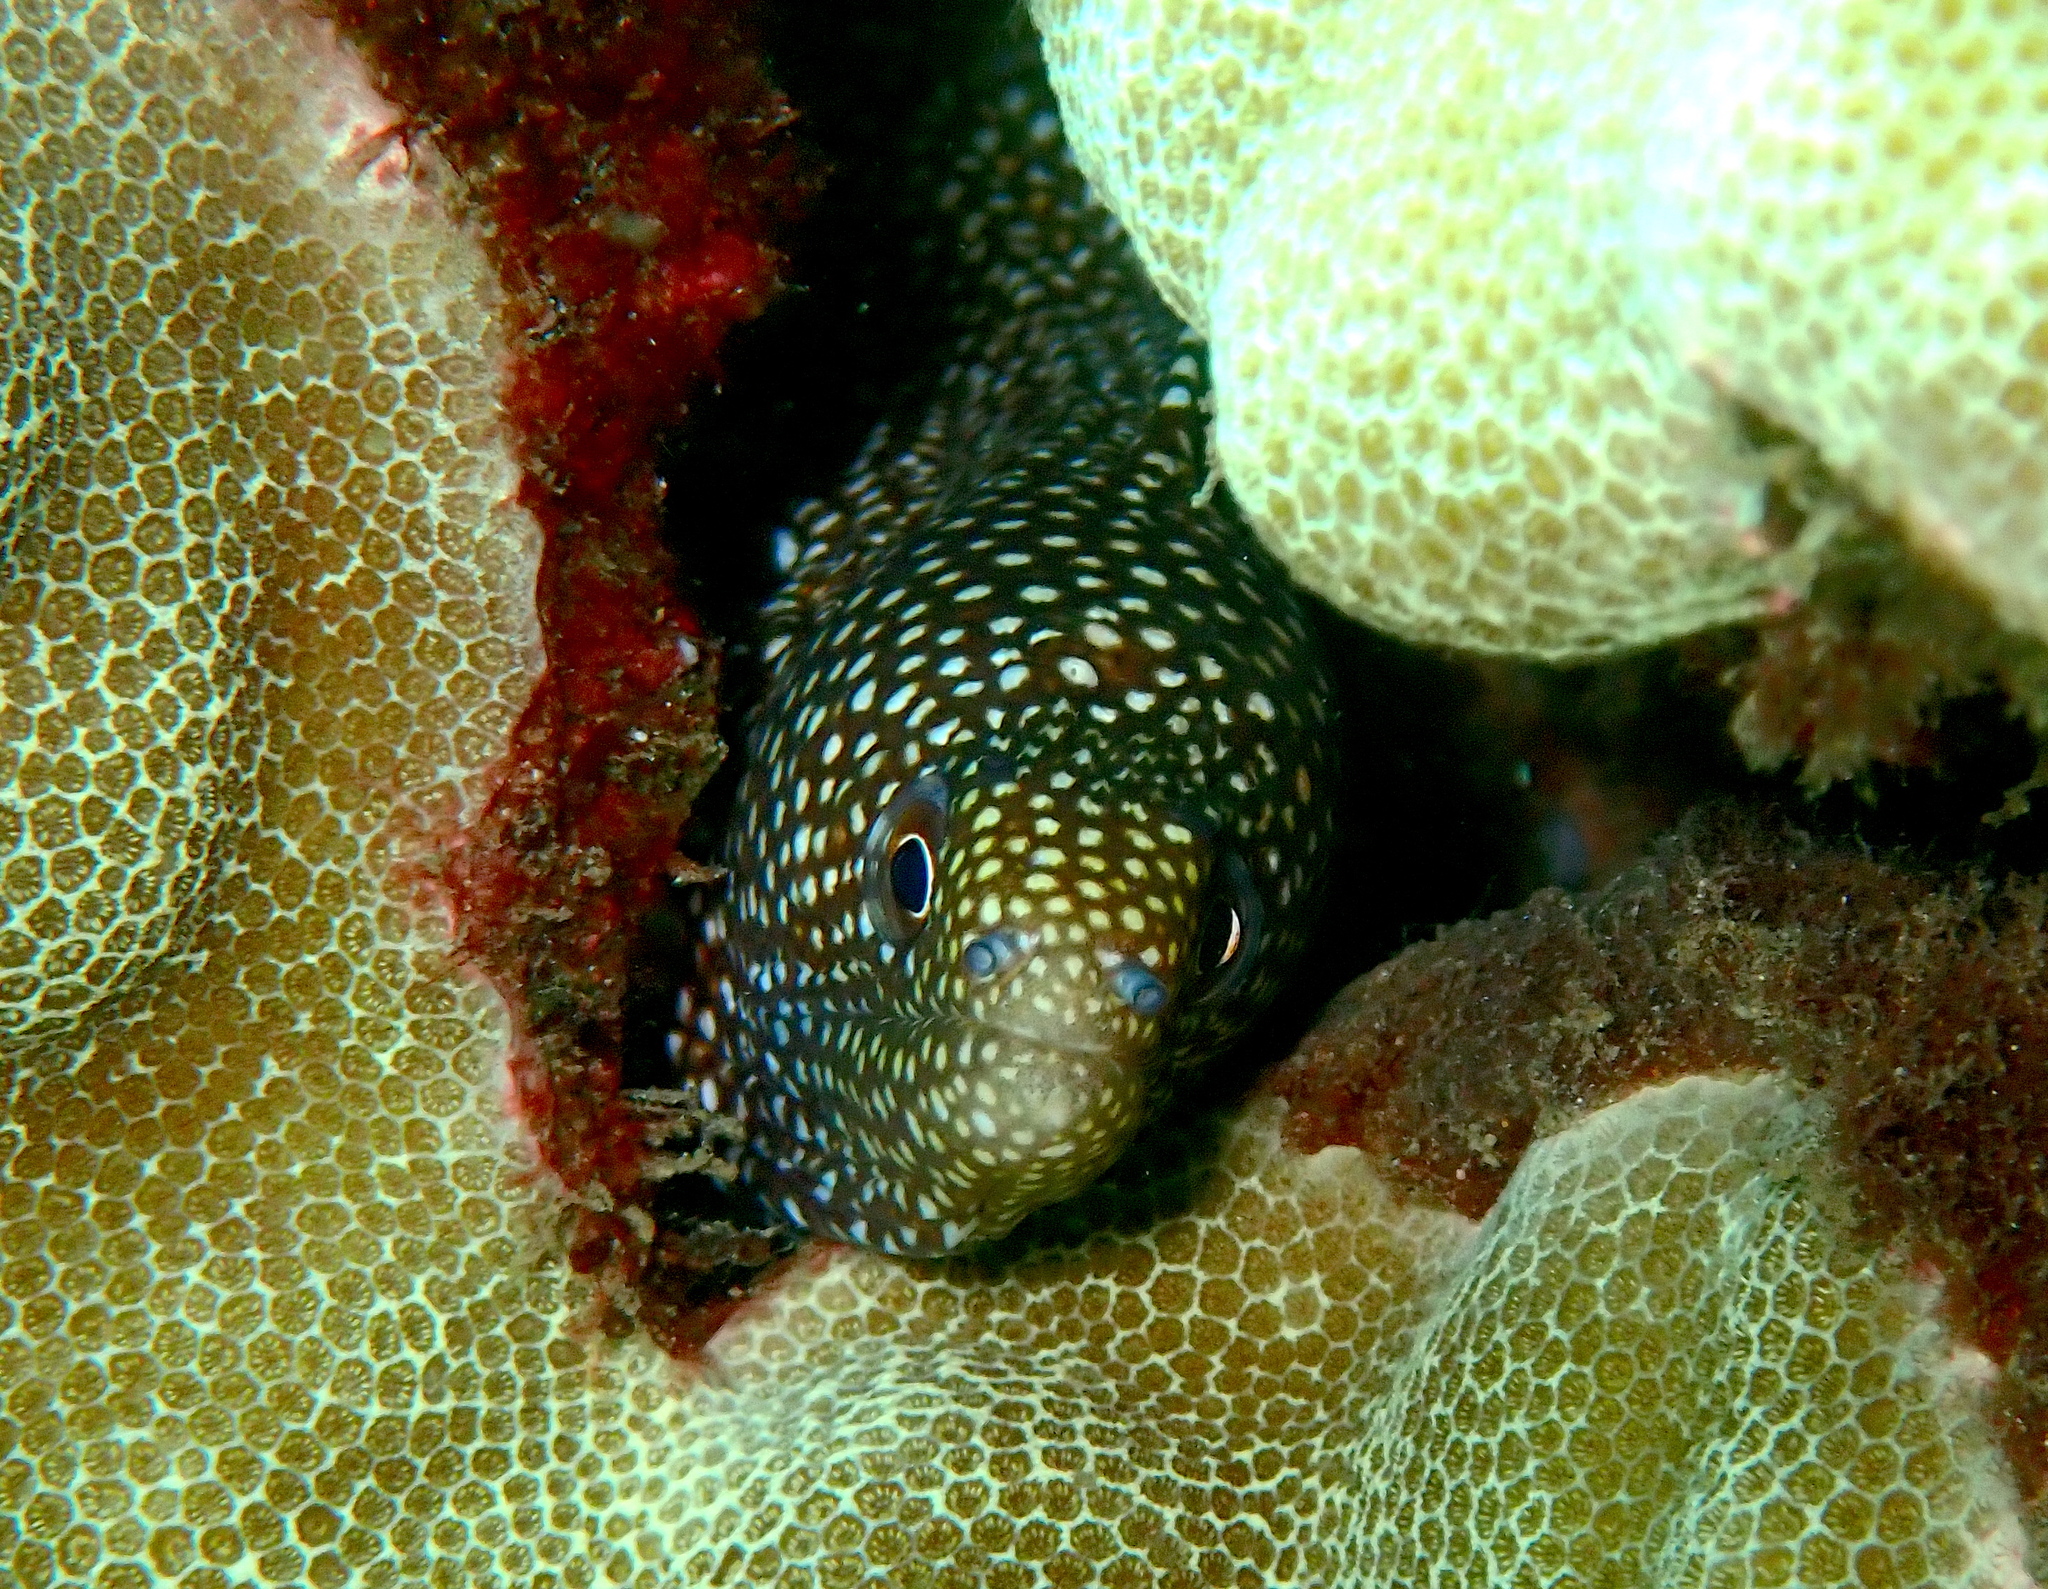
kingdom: Animalia
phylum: Chordata
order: Anguilliformes
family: Muraenidae
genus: Gymnothorax
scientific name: Gymnothorax meleagris
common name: Guineafowl moray
